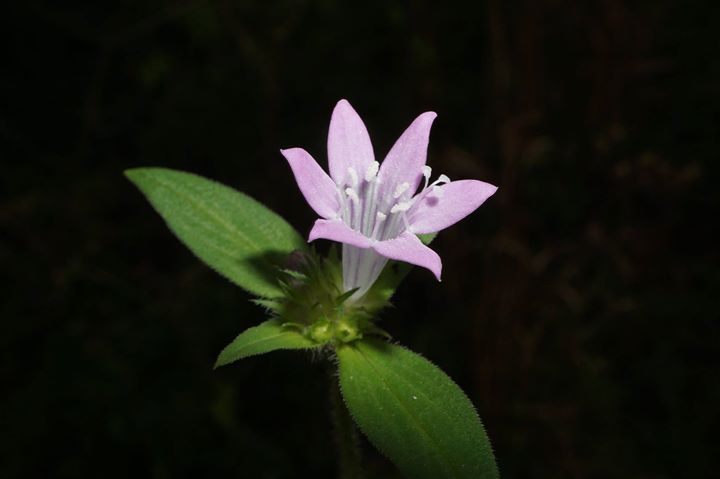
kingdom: Plantae
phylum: Tracheophyta
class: Magnoliopsida
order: Gentianales
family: Rubiaceae
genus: Richardia
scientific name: Richardia grandiflora
